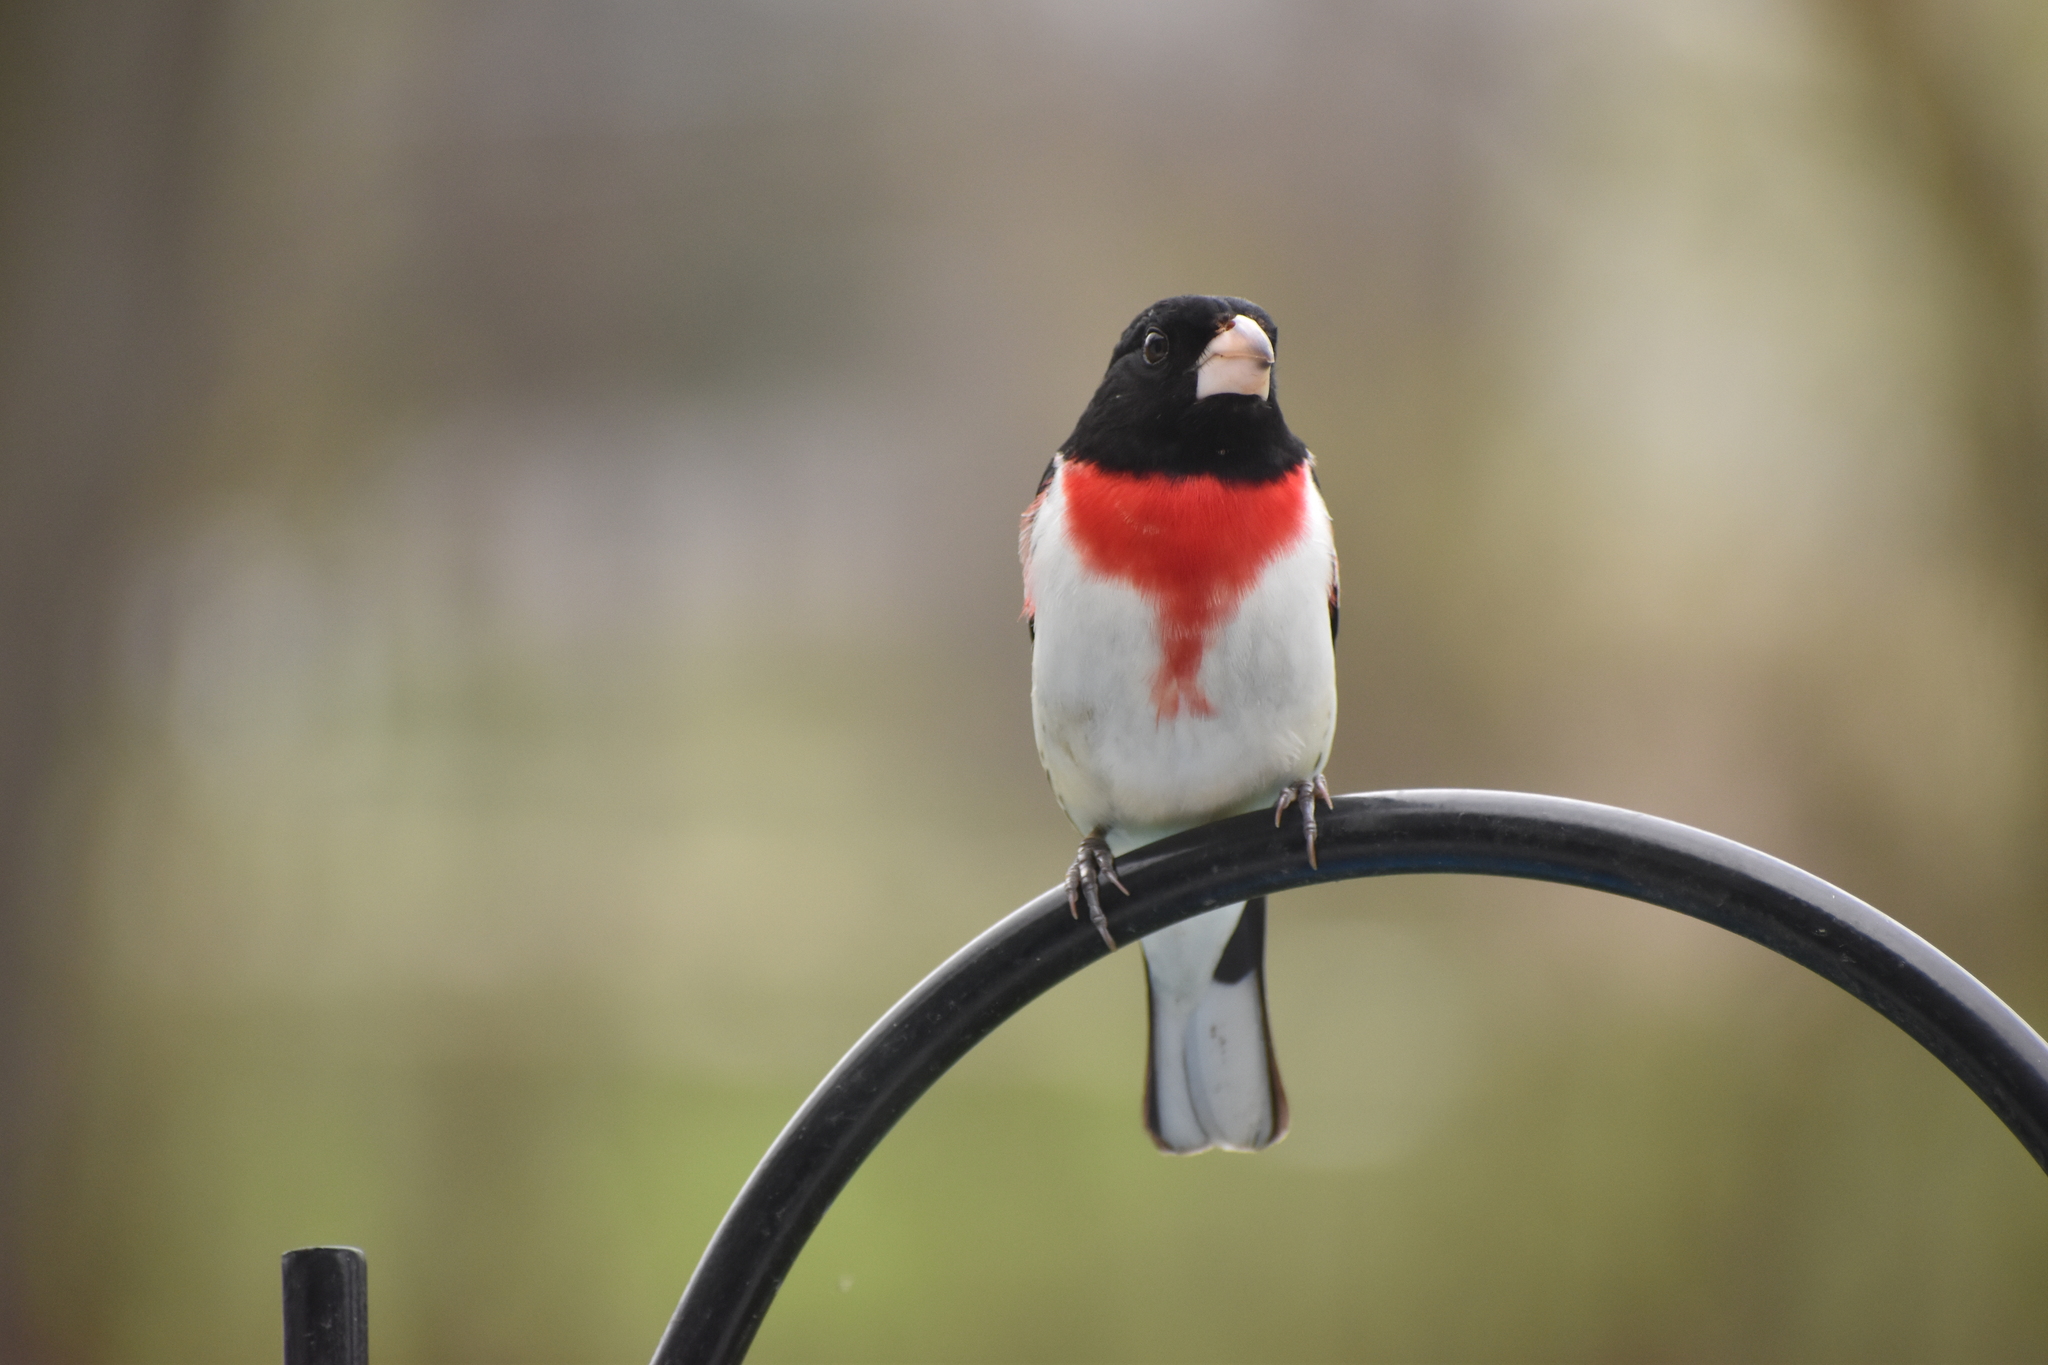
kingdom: Animalia
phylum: Chordata
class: Aves
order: Passeriformes
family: Cardinalidae
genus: Pheucticus
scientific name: Pheucticus ludovicianus
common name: Rose-breasted grosbeak
